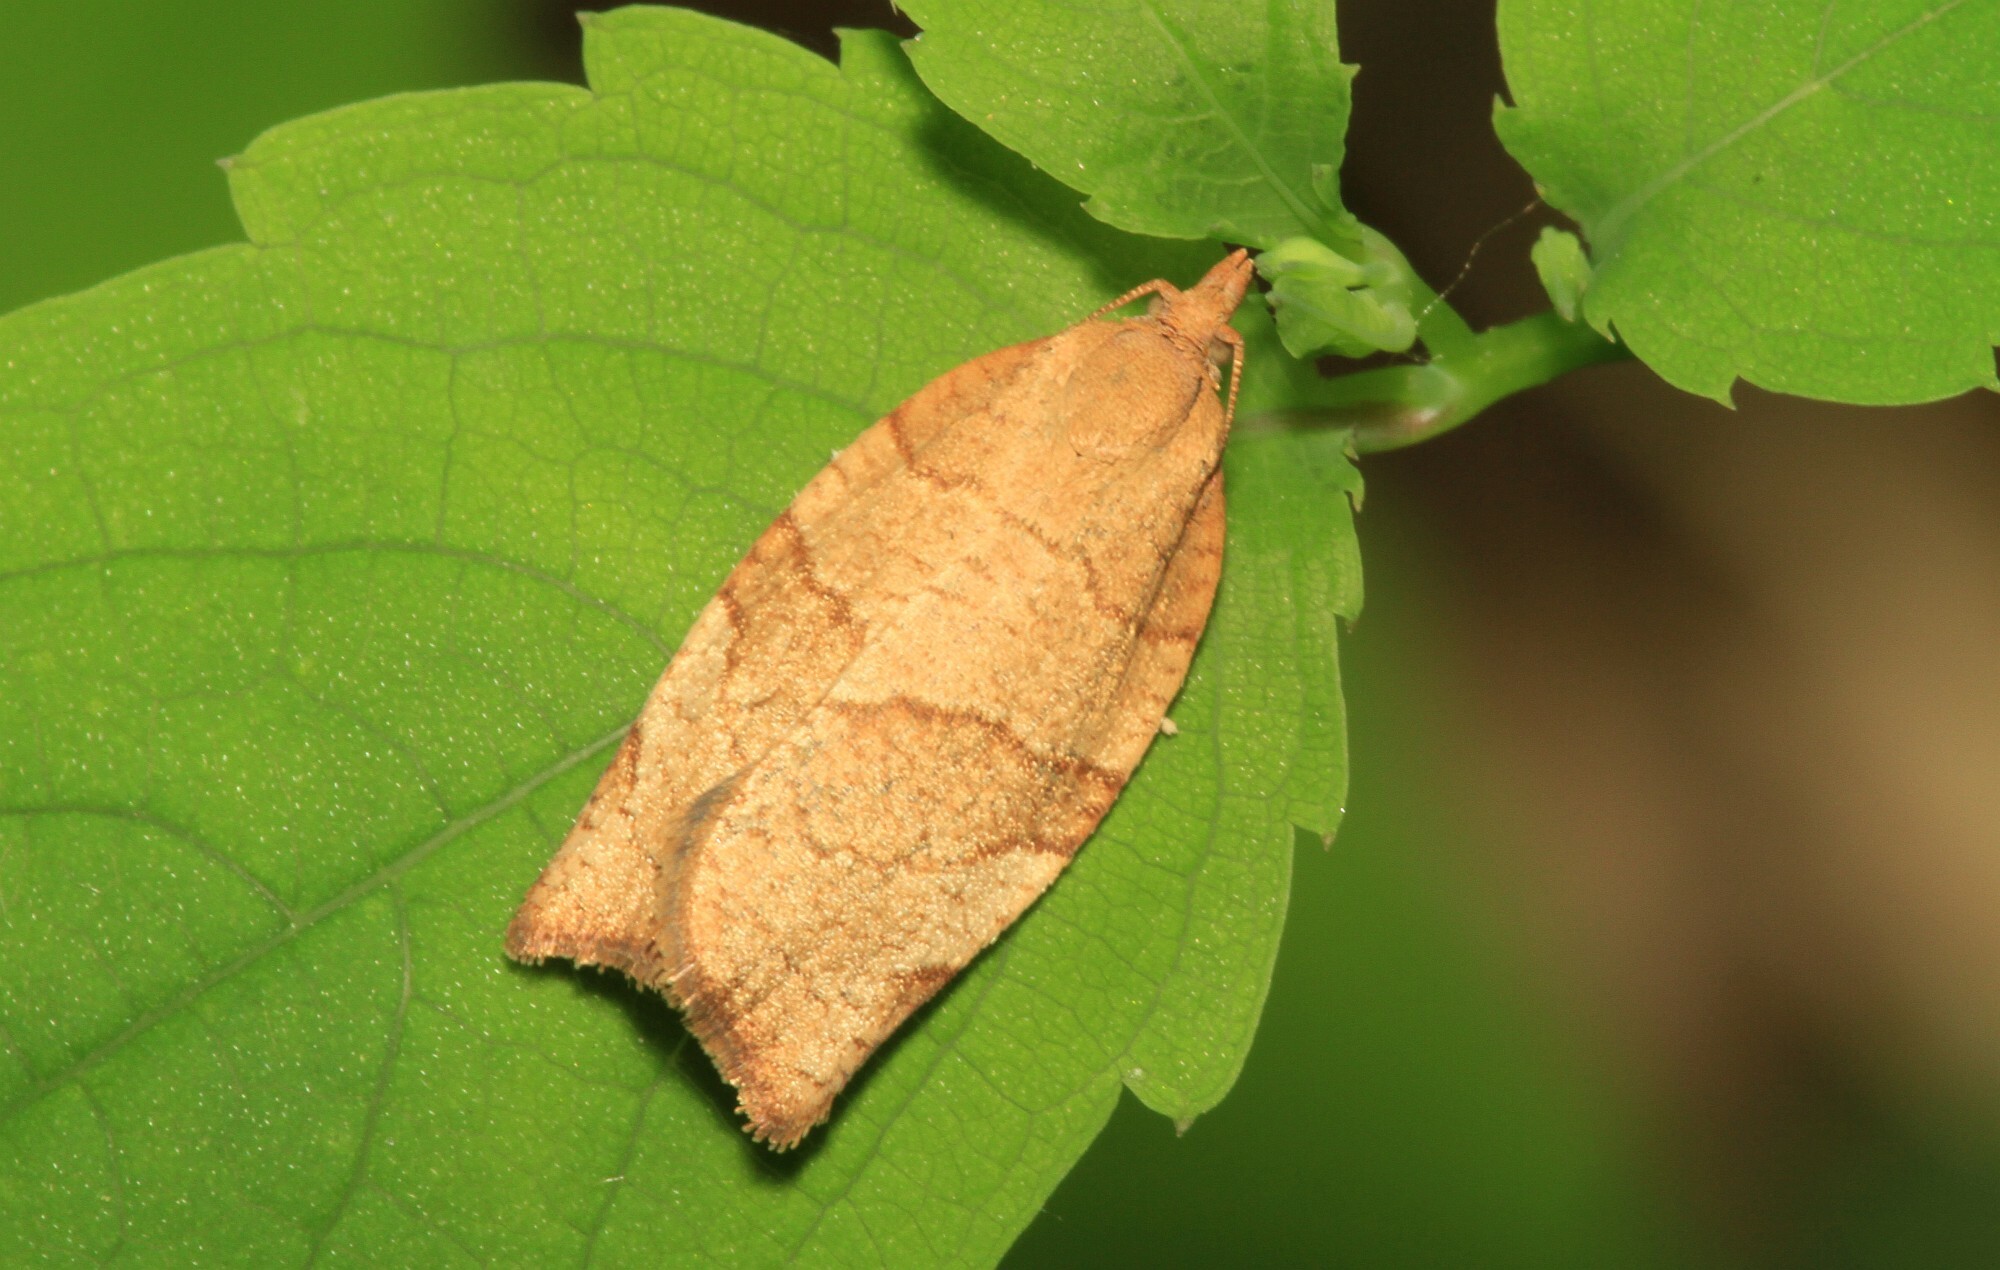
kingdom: Animalia
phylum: Arthropoda
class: Insecta
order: Lepidoptera
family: Tortricidae
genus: Pandemis
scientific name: Pandemis cerasana
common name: Barred fruit-tree tortrix
